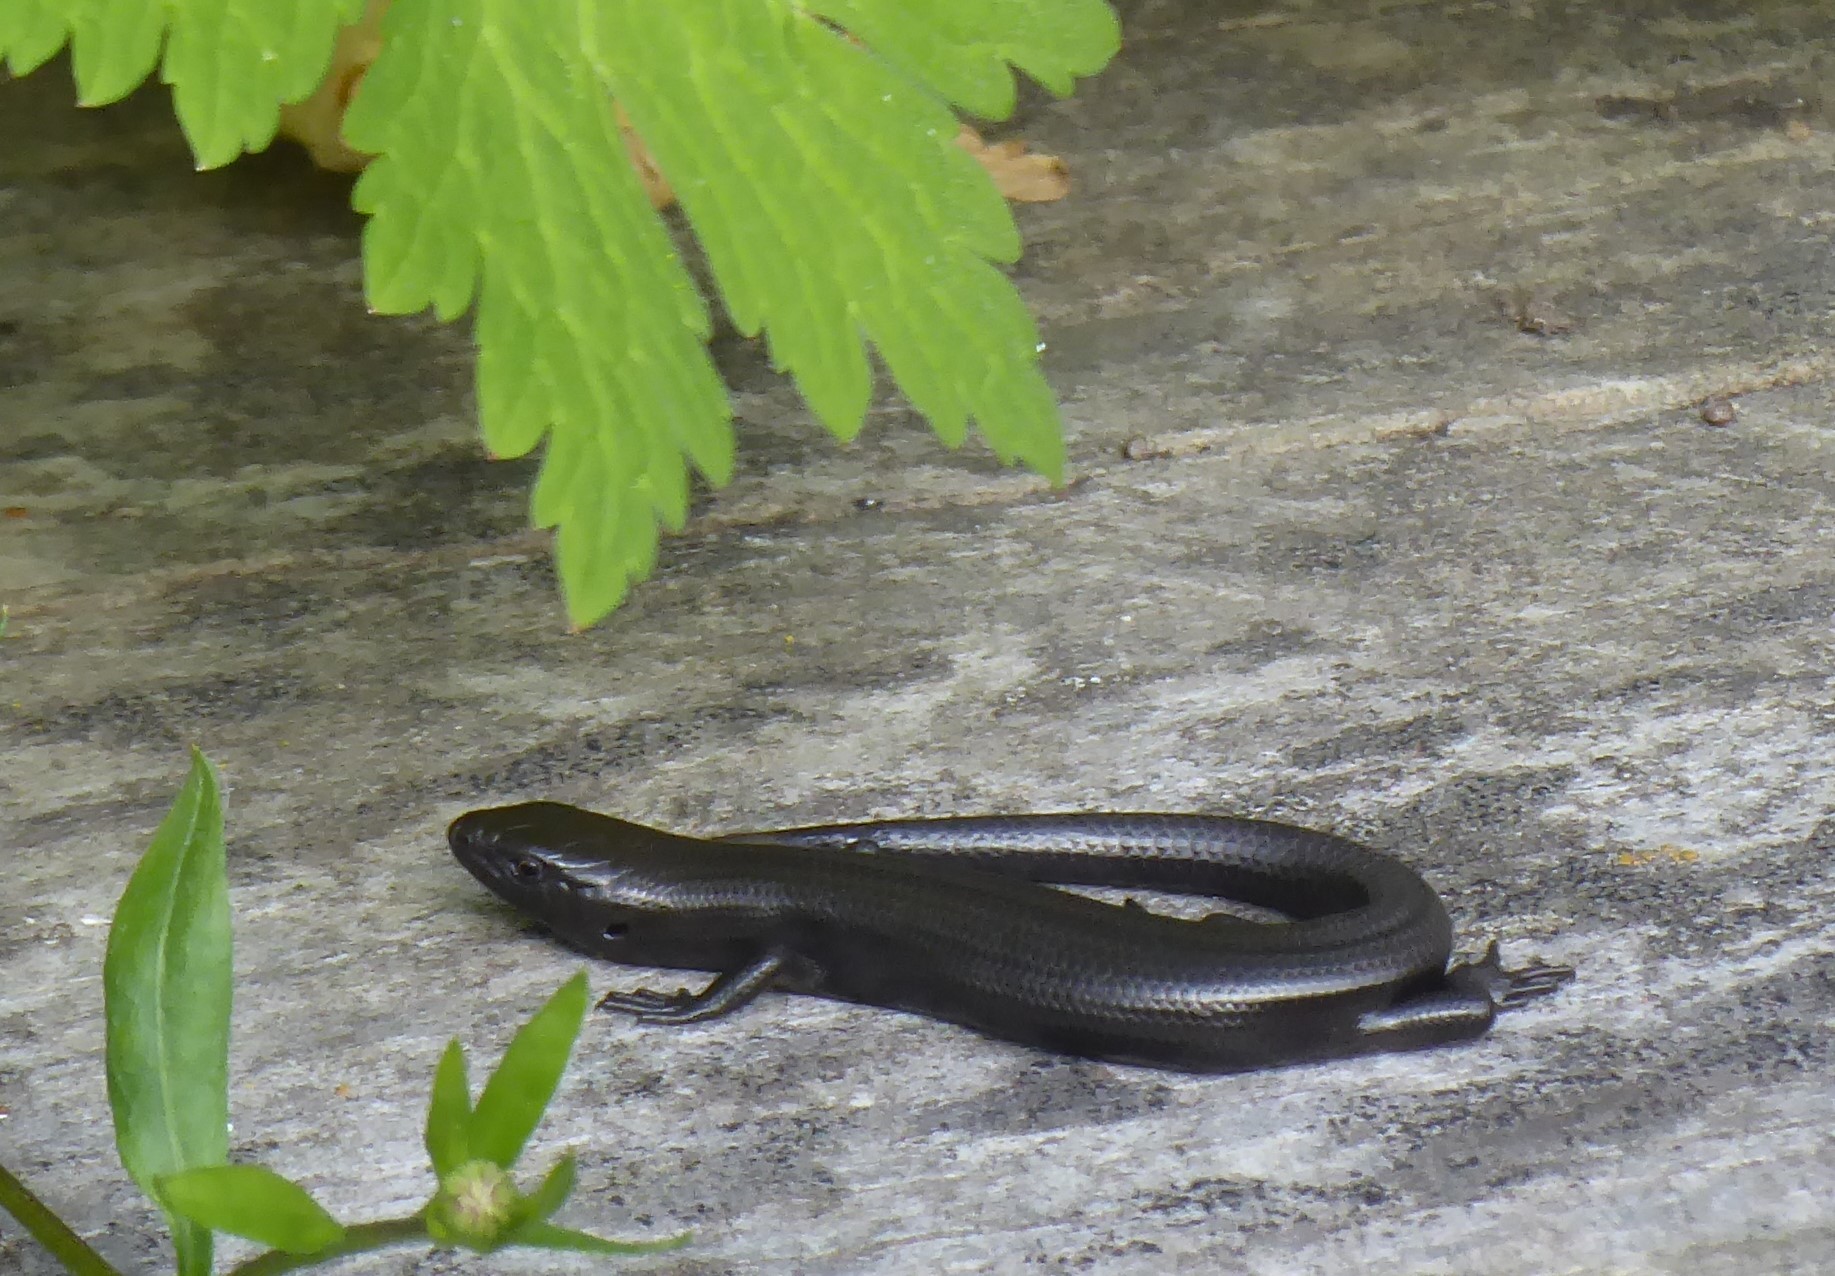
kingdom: Animalia
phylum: Chordata
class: Squamata
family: Scincidae
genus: Oligosoma
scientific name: Oligosoma polychroma
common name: Common new zealand skink
